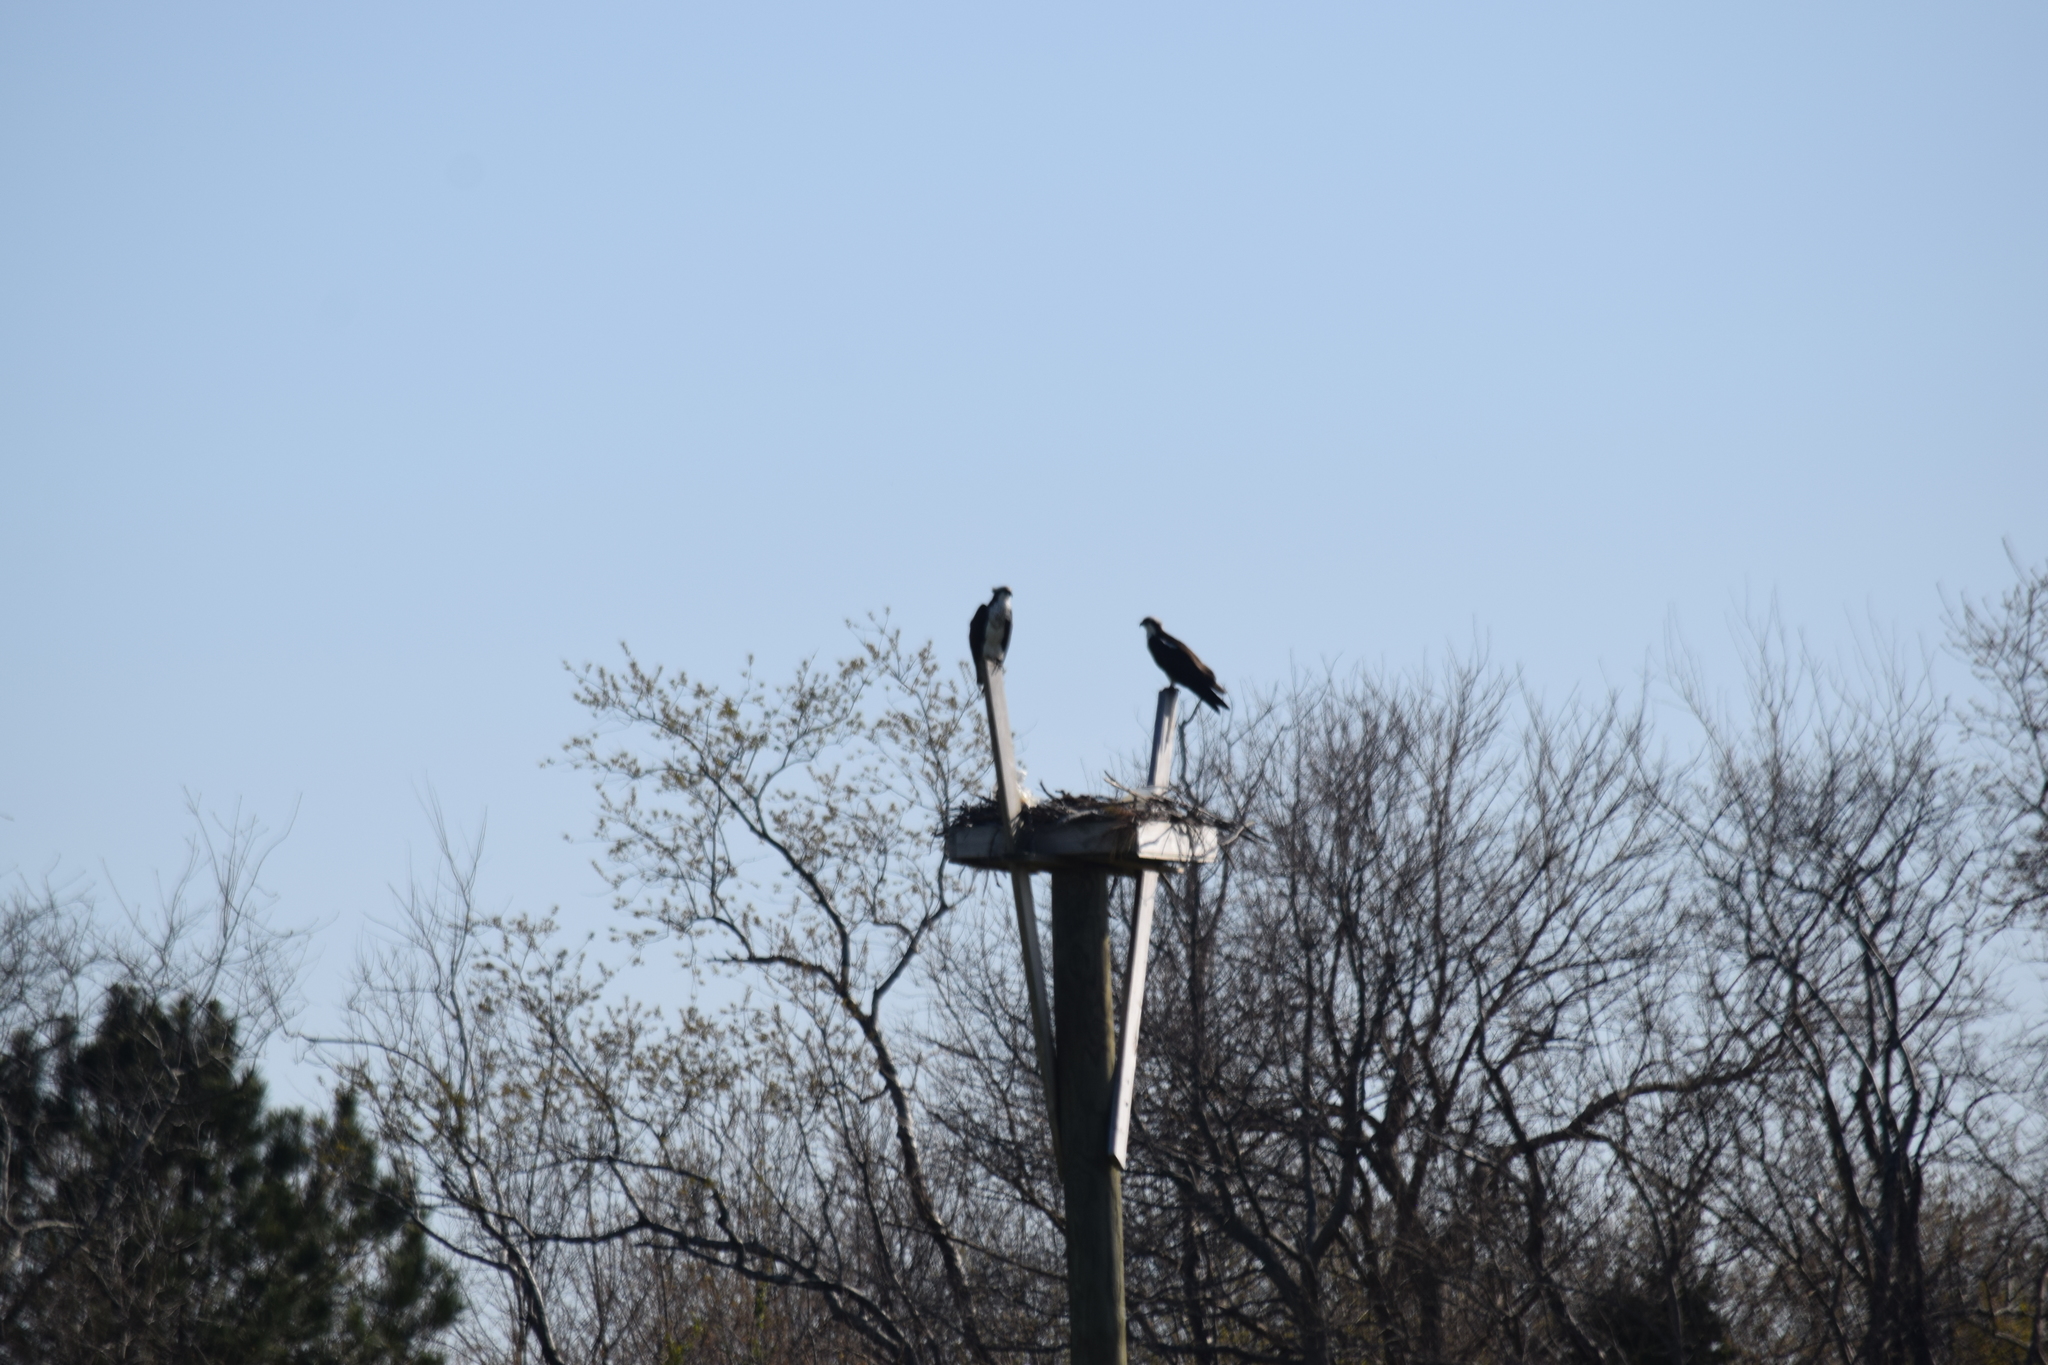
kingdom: Animalia
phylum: Chordata
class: Aves
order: Accipitriformes
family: Pandionidae
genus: Pandion
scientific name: Pandion haliaetus
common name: Osprey
